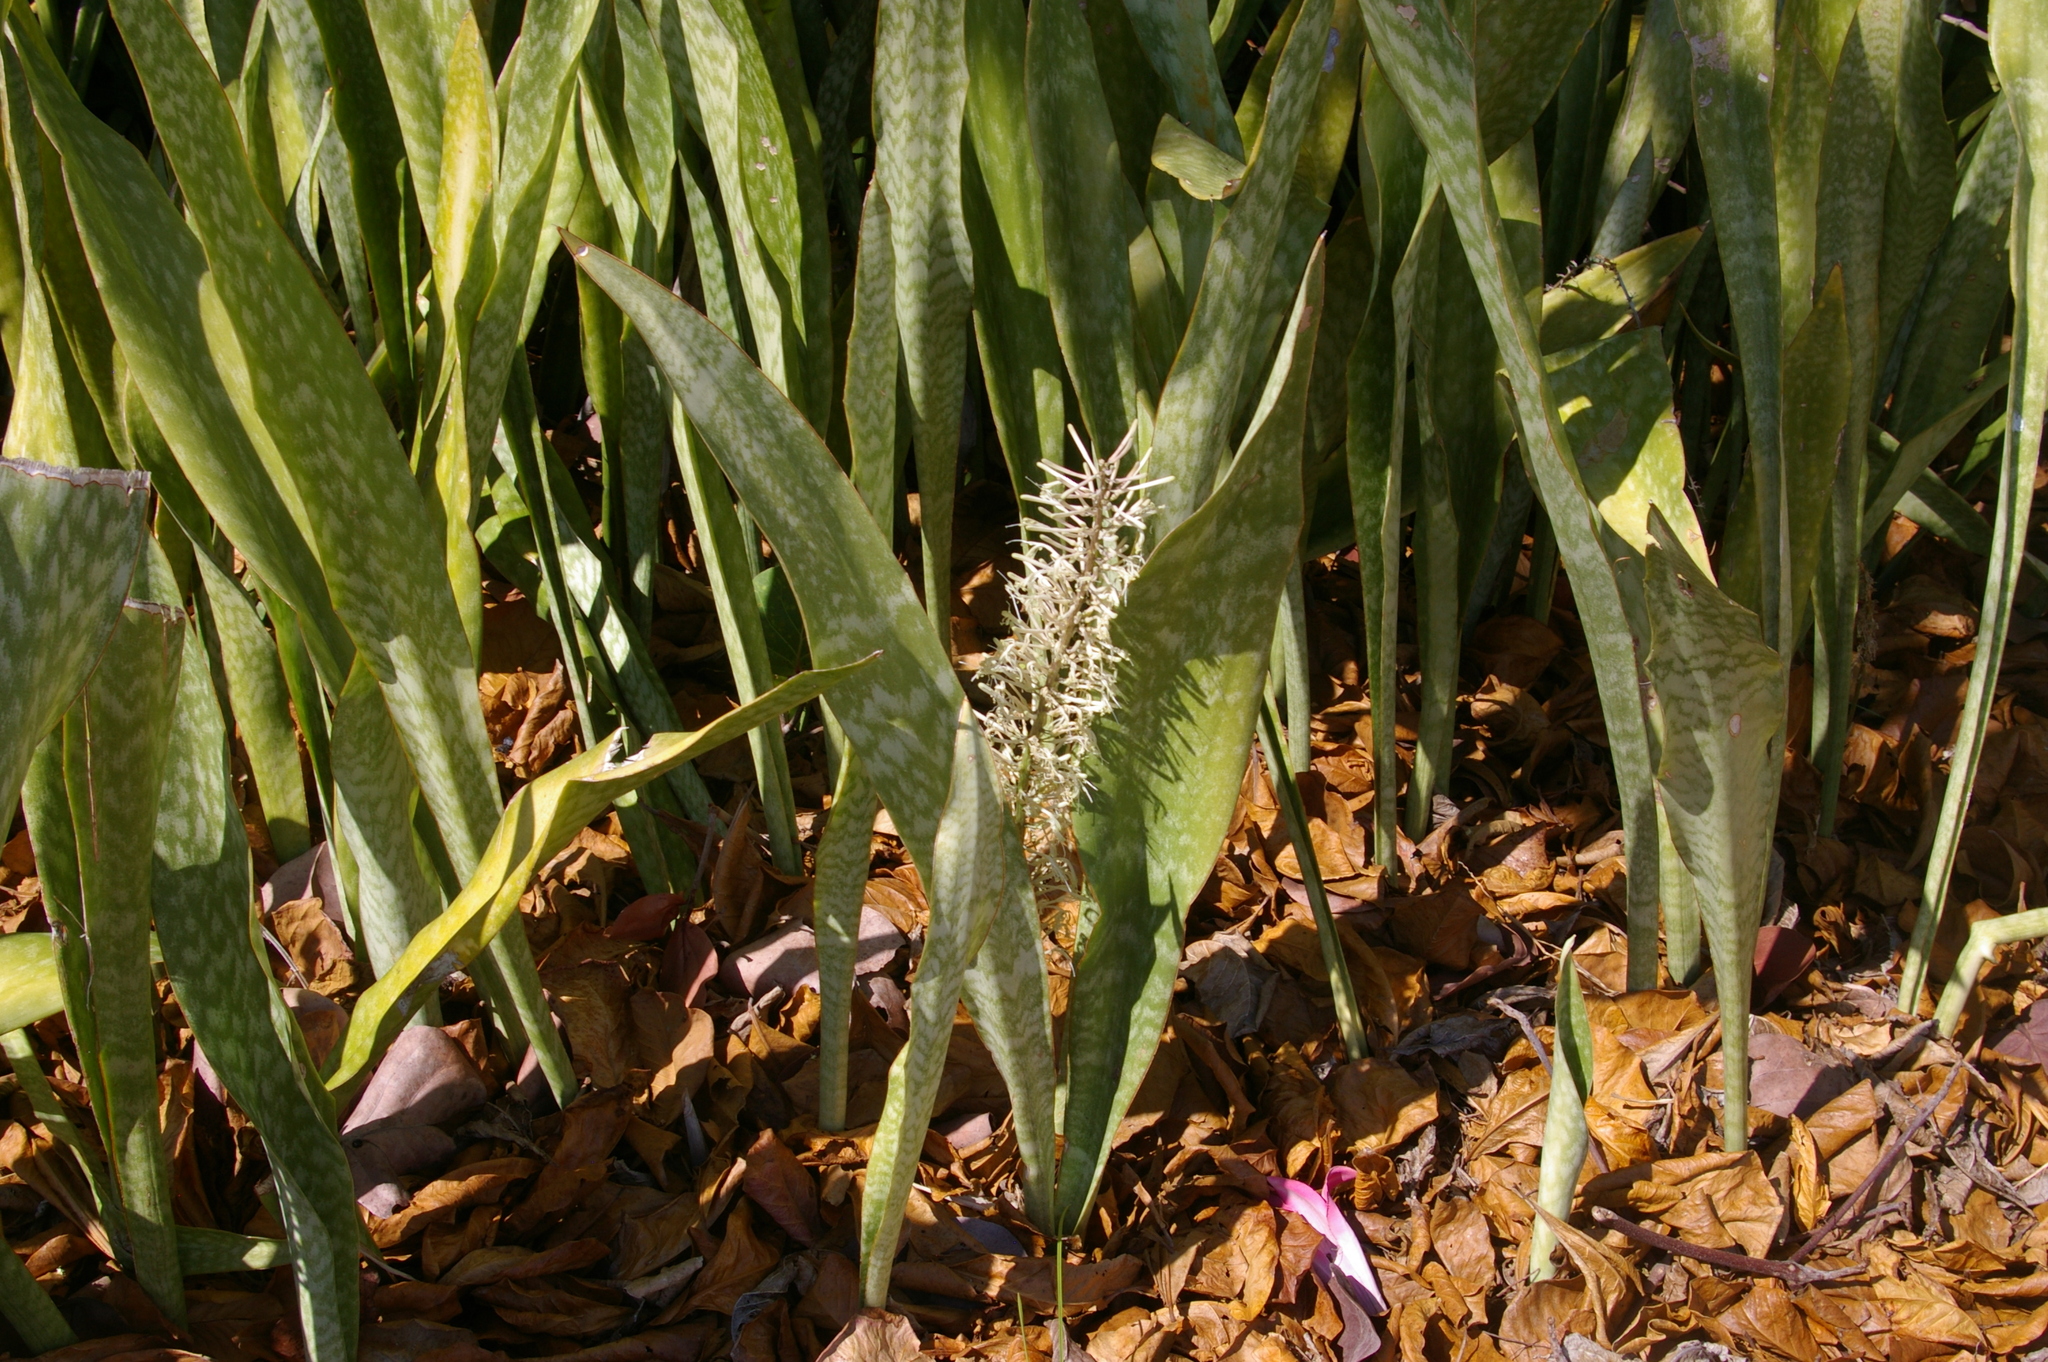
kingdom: Plantae
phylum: Tracheophyta
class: Liliopsida
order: Asparagales
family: Asparagaceae
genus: Dracaena
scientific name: Dracaena hyacinthoides
